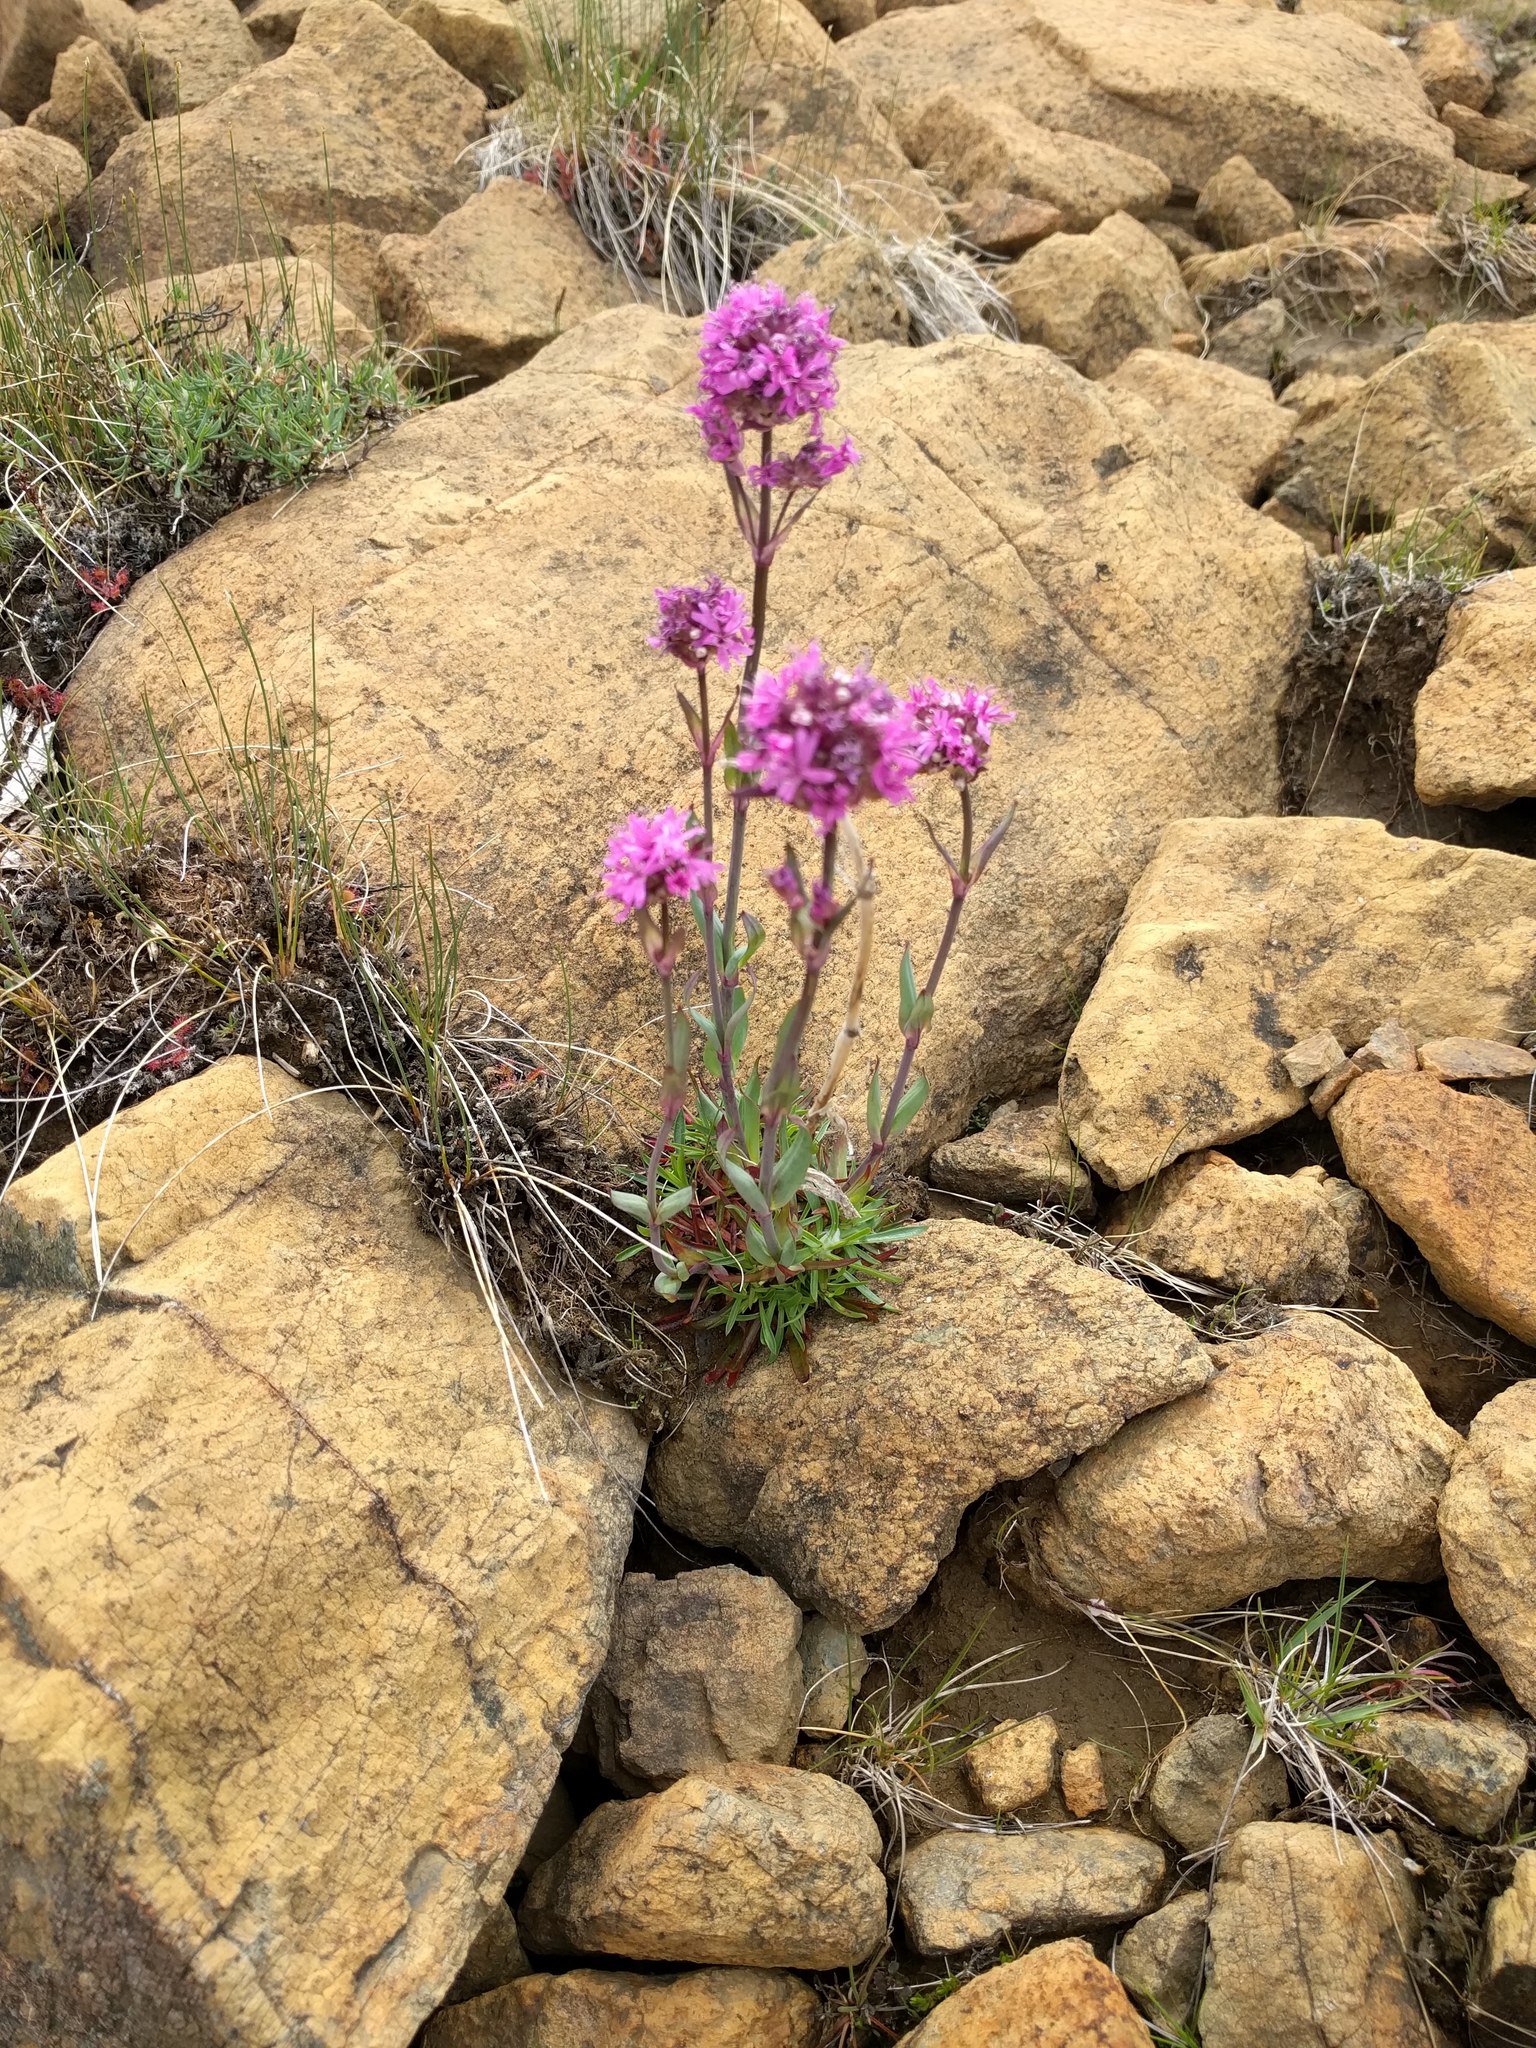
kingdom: Plantae
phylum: Tracheophyta
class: Magnoliopsida
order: Caryophyllales
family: Caryophyllaceae
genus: Viscaria
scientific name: Viscaria alpina
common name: Alpine campion
